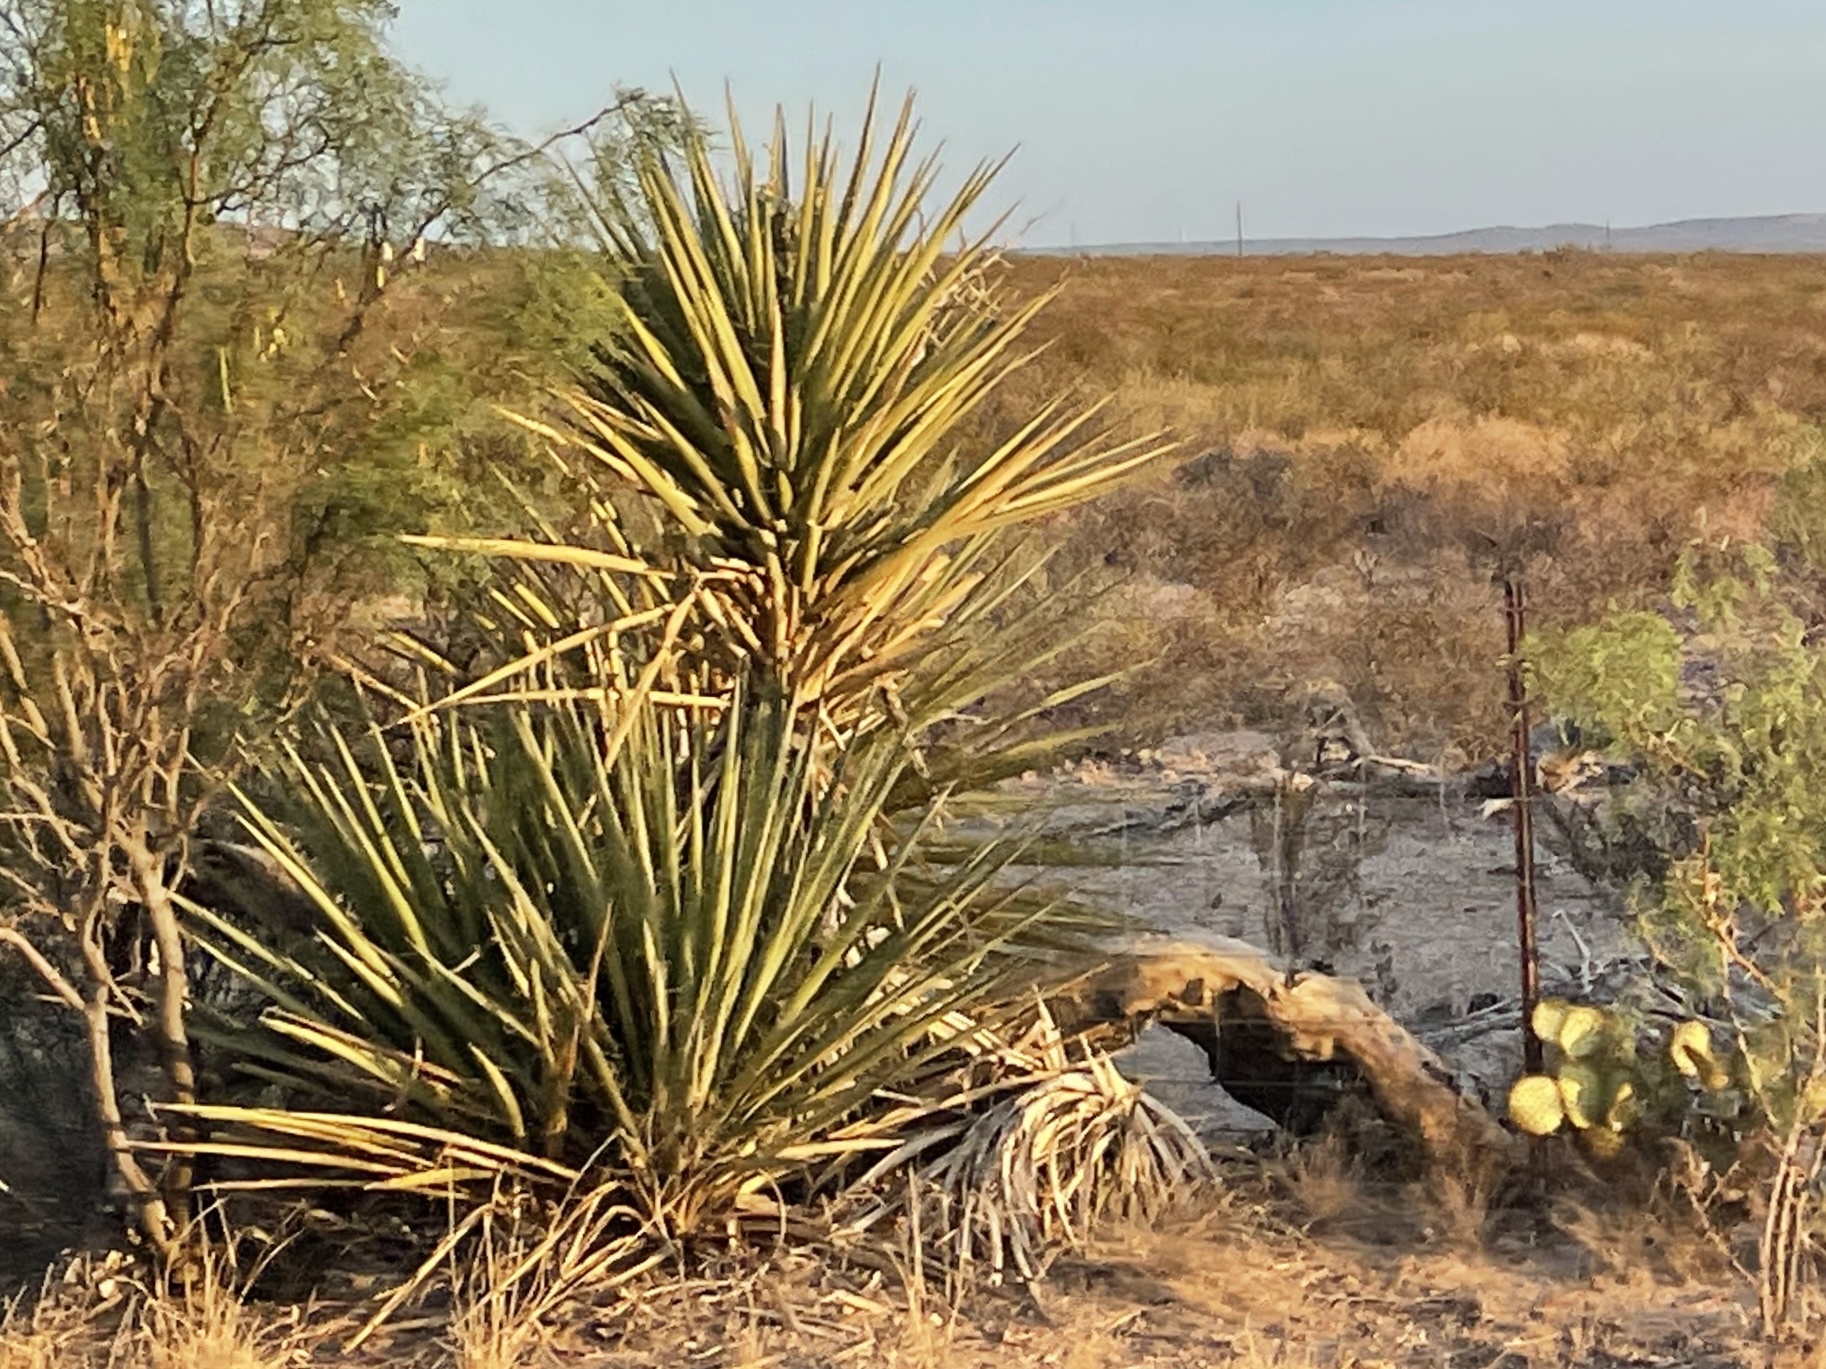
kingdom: Plantae
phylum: Tracheophyta
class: Liliopsida
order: Asparagales
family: Asparagaceae
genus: Yucca
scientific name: Yucca treculiana
